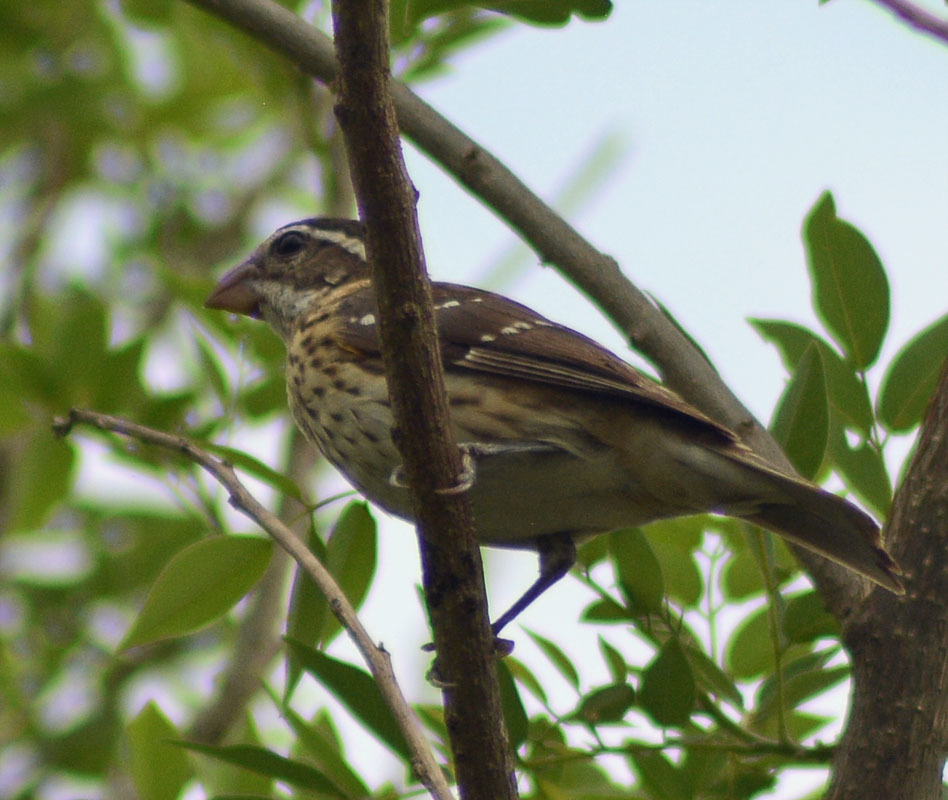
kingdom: Animalia
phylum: Chordata
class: Aves
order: Passeriformes
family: Cardinalidae
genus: Pheucticus
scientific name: Pheucticus ludovicianus
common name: Rose-breasted grosbeak
